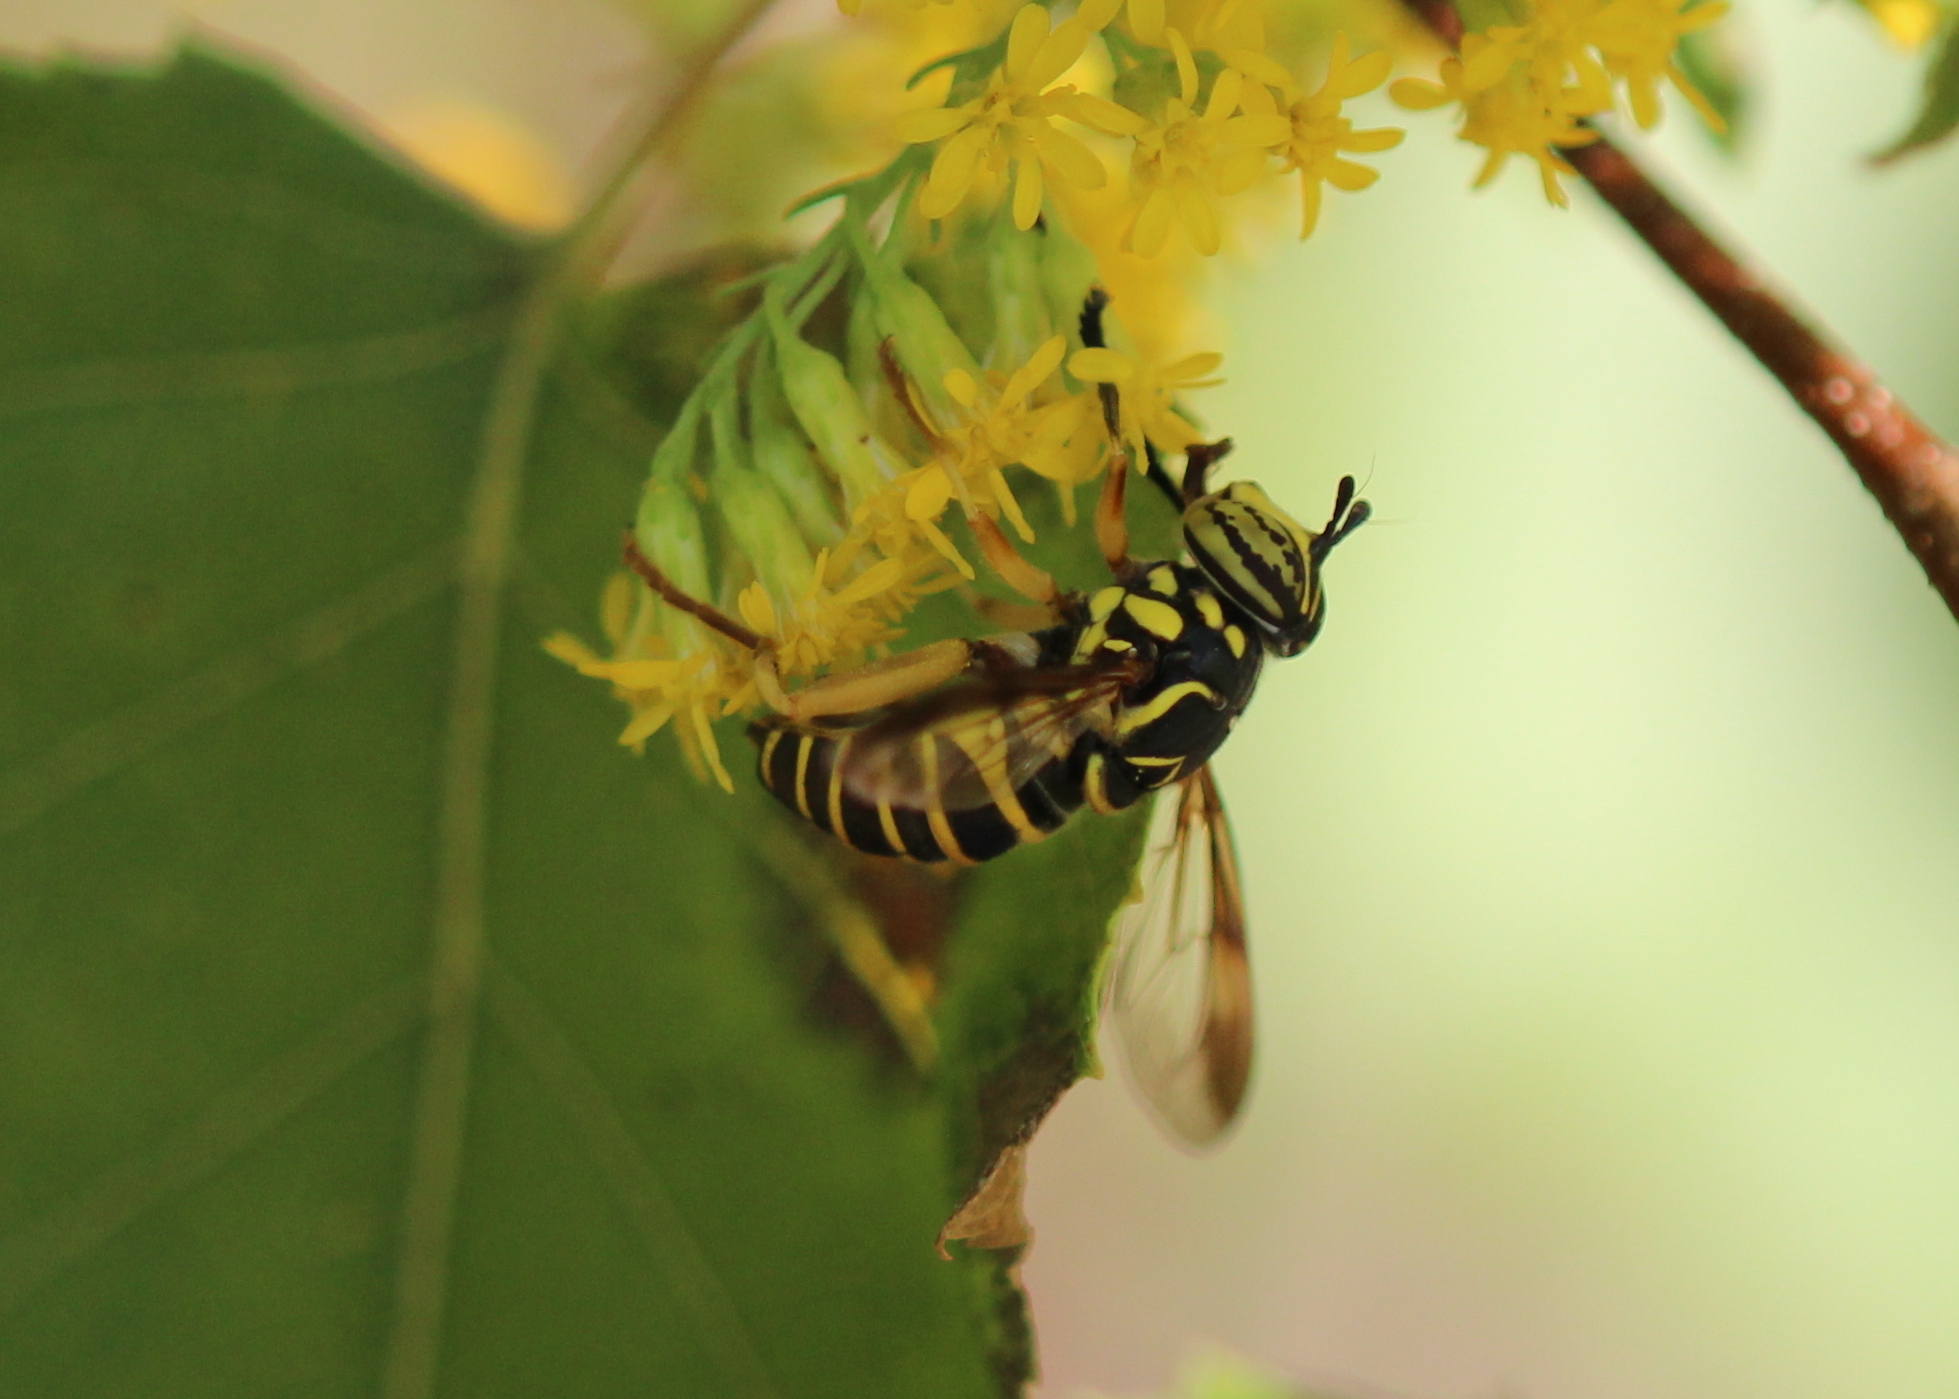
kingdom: Animalia
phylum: Arthropoda
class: Insecta
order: Diptera
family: Syrphidae
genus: Spilomyia
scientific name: Spilomyia longicornis
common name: Eastern hornet fly
